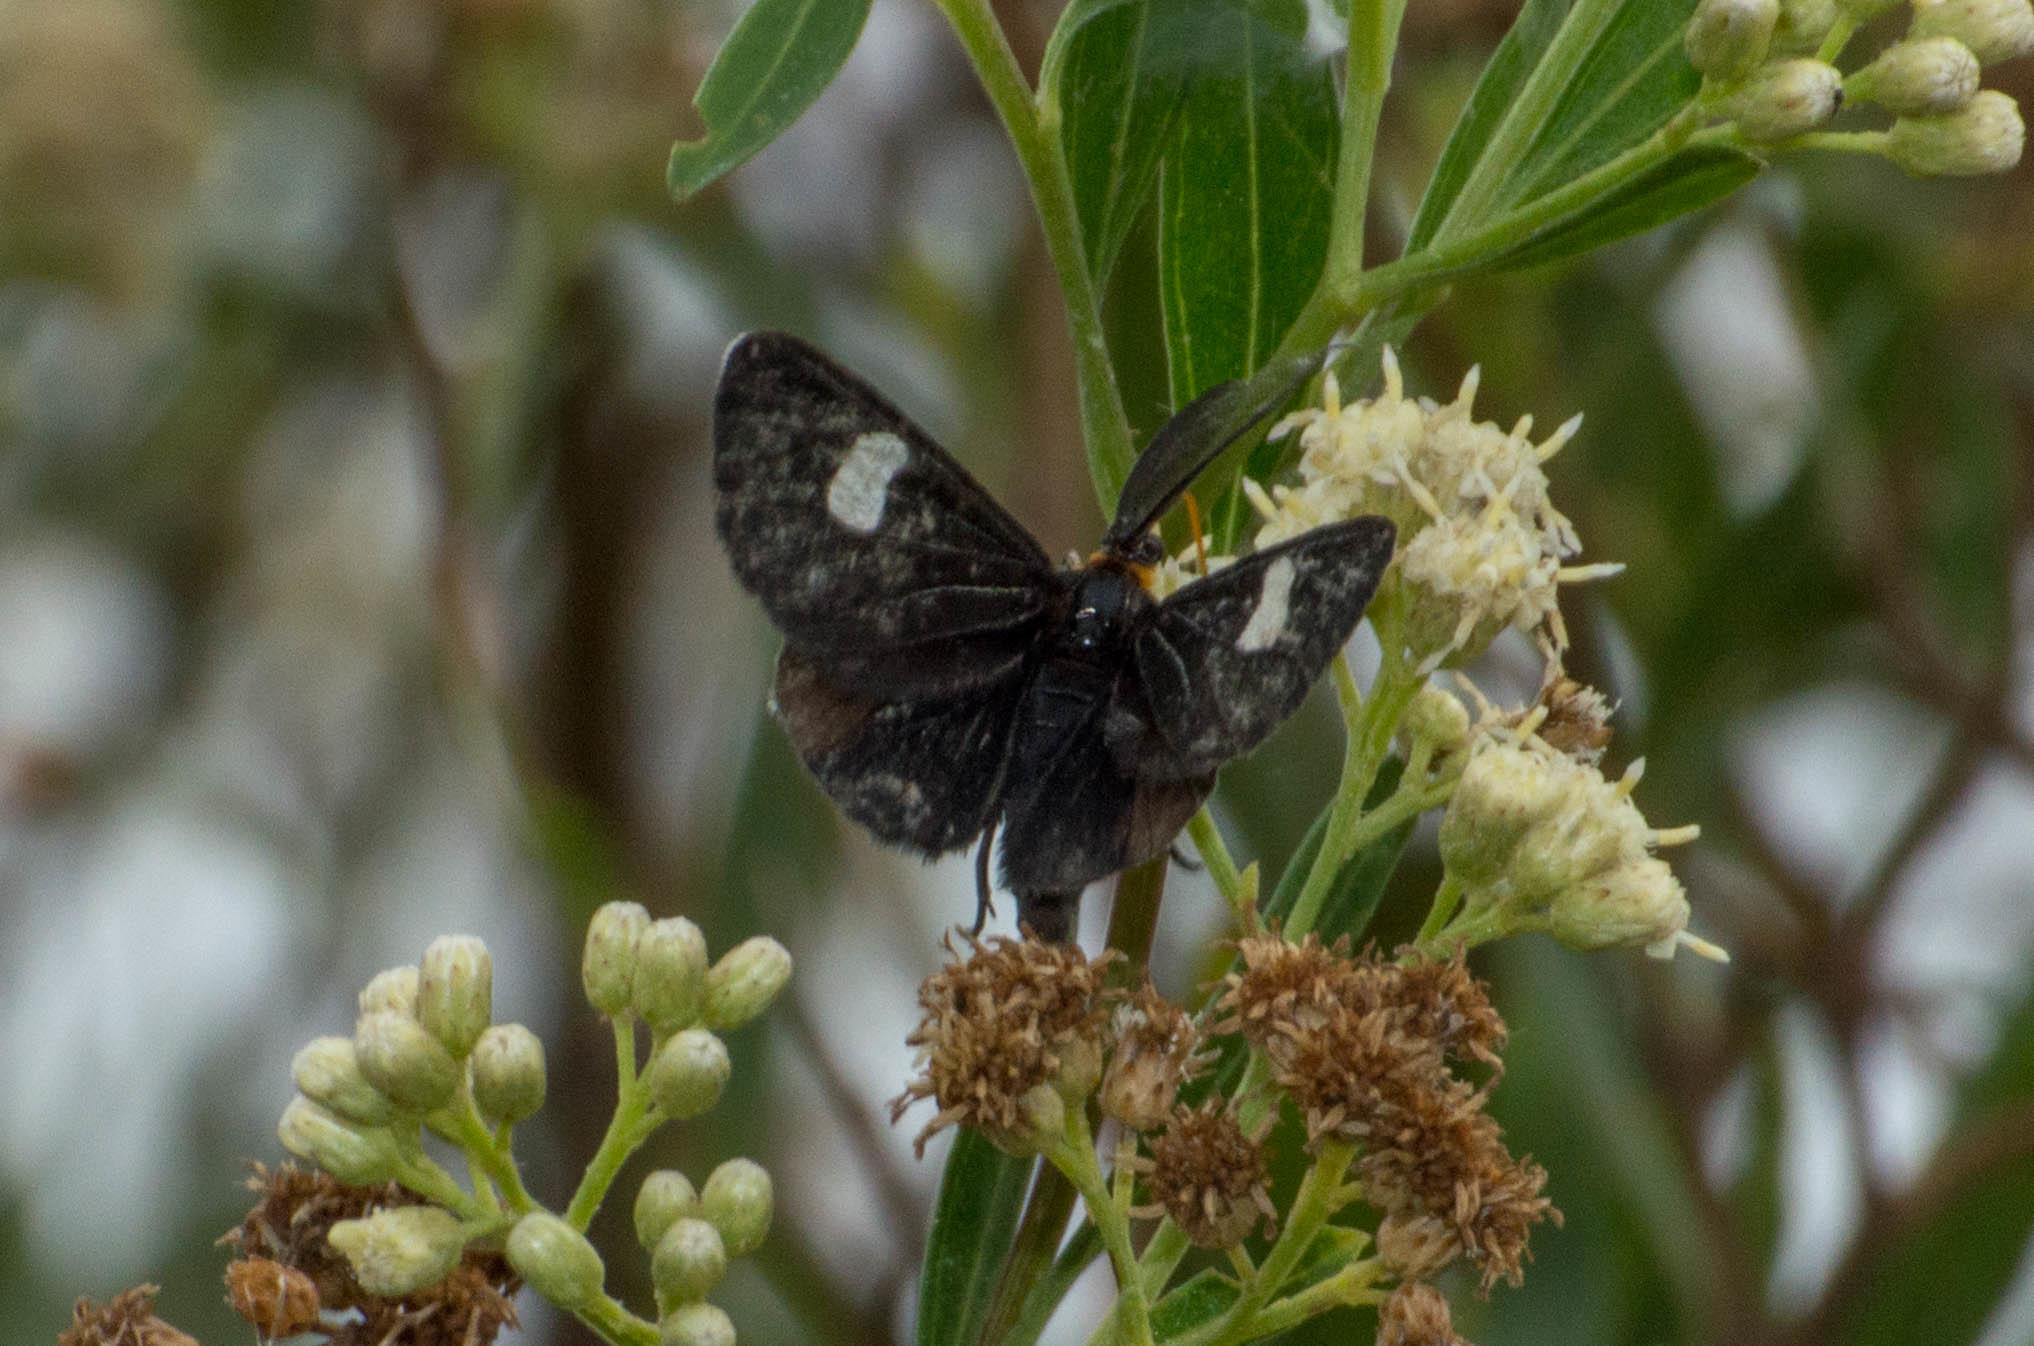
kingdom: Animalia
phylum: Arthropoda
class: Insecta
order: Lepidoptera
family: Geometridae
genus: Melanchroia
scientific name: Melanchroia aterea
